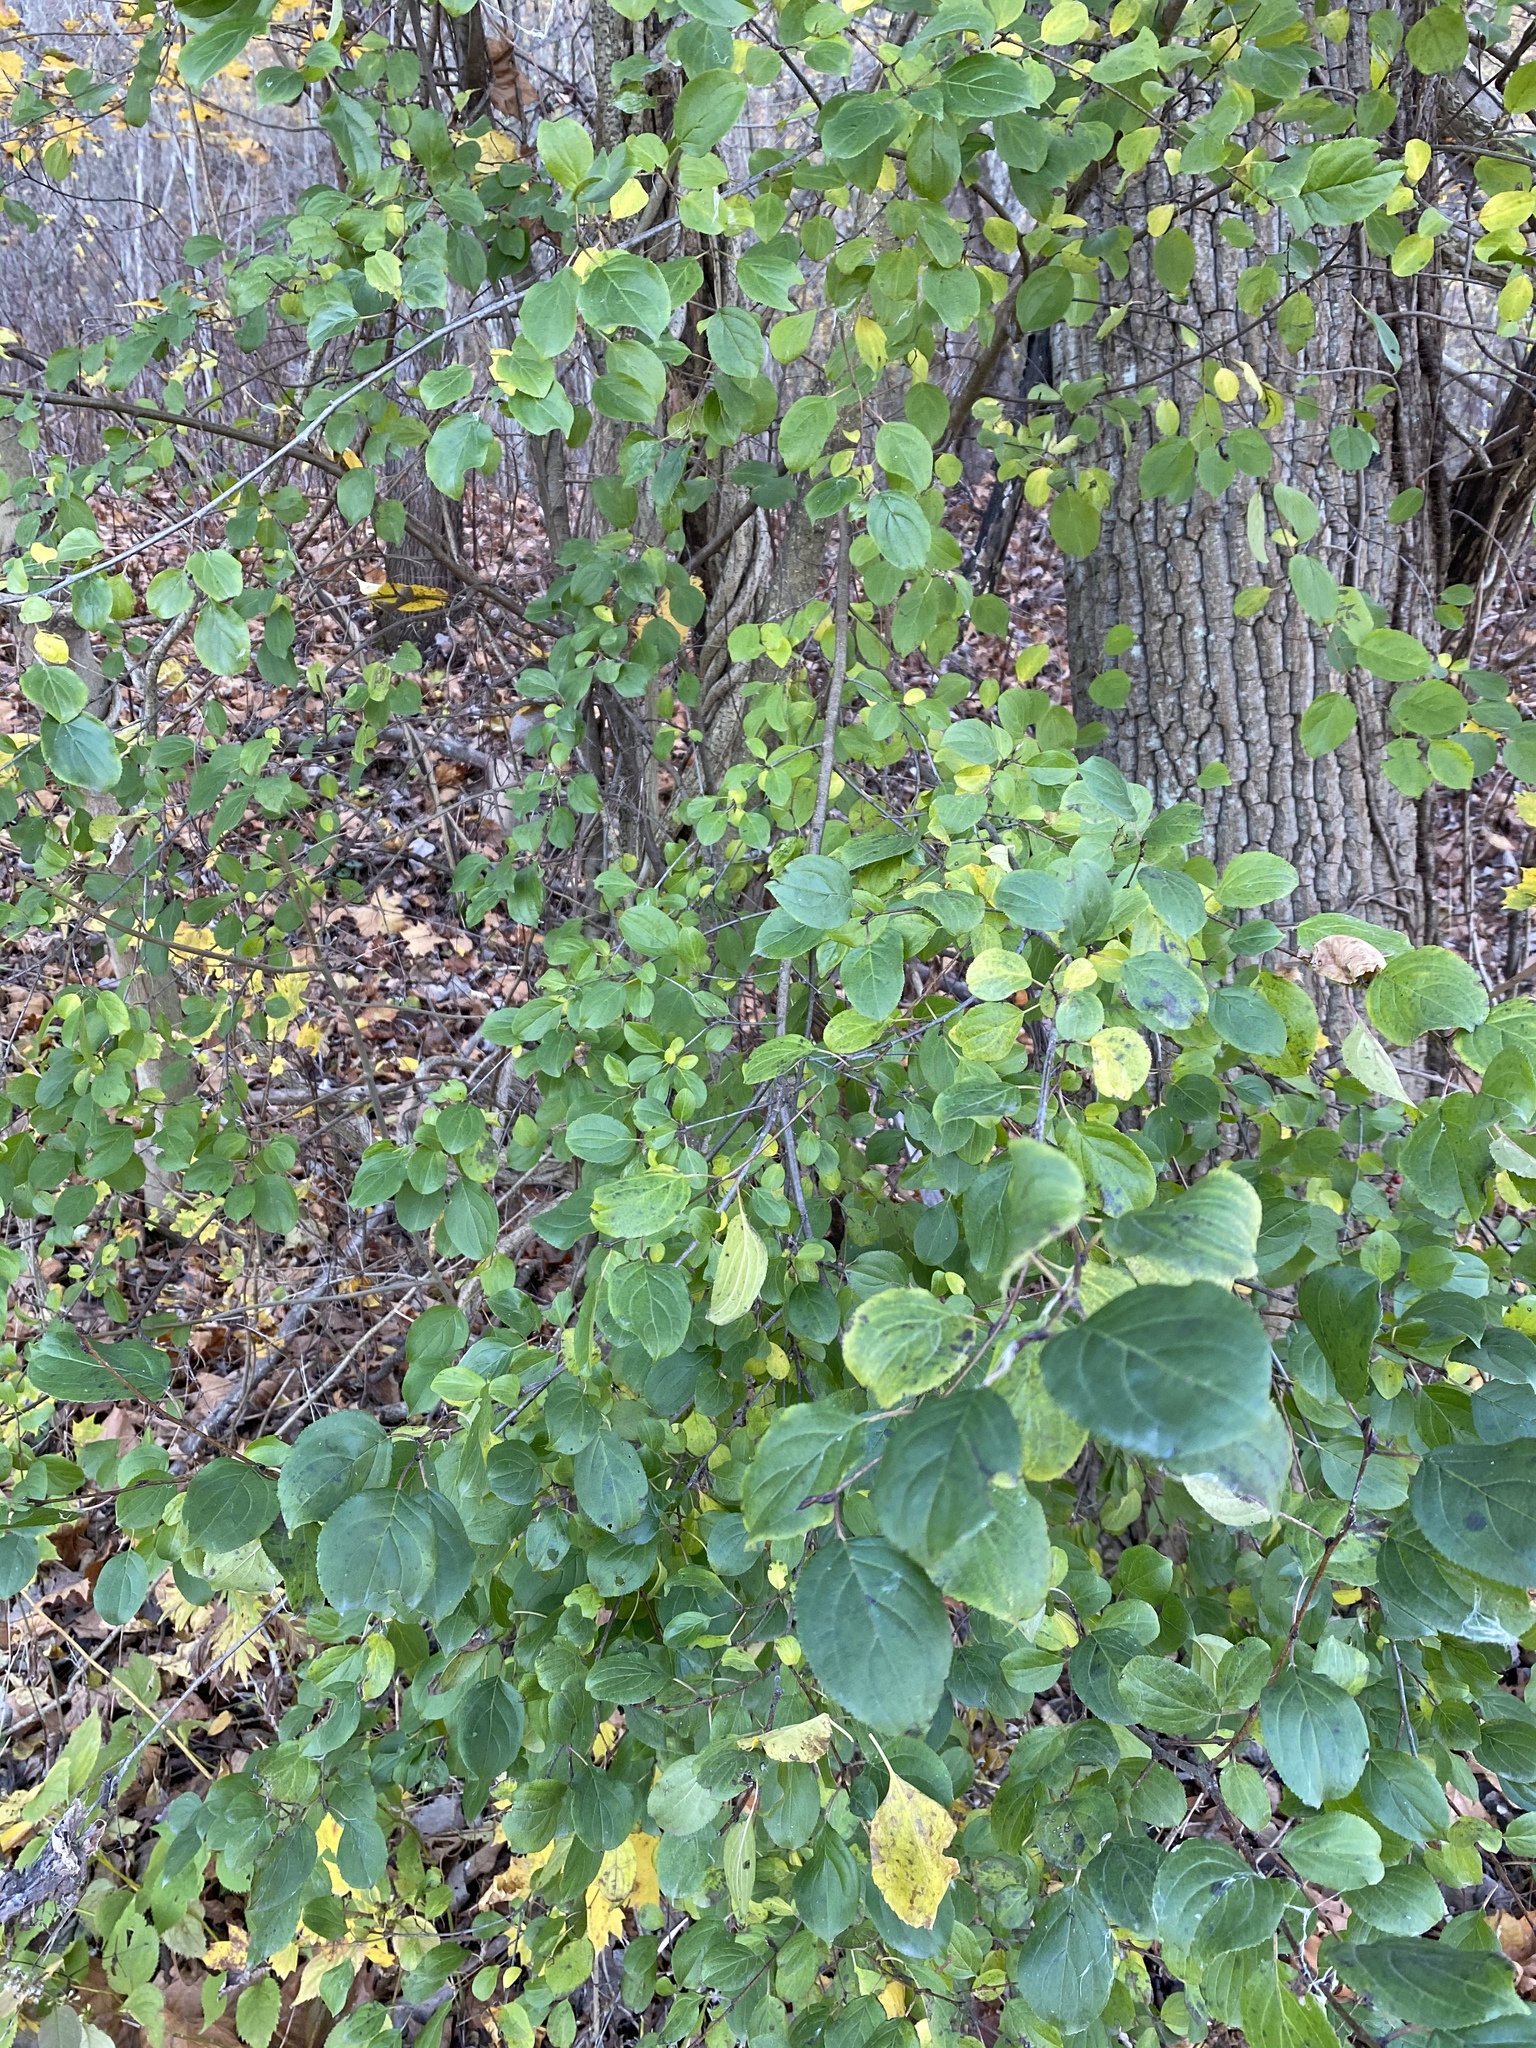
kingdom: Plantae
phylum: Tracheophyta
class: Magnoliopsida
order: Rosales
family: Rhamnaceae
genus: Rhamnus
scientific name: Rhamnus cathartica
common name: Common buckthorn
